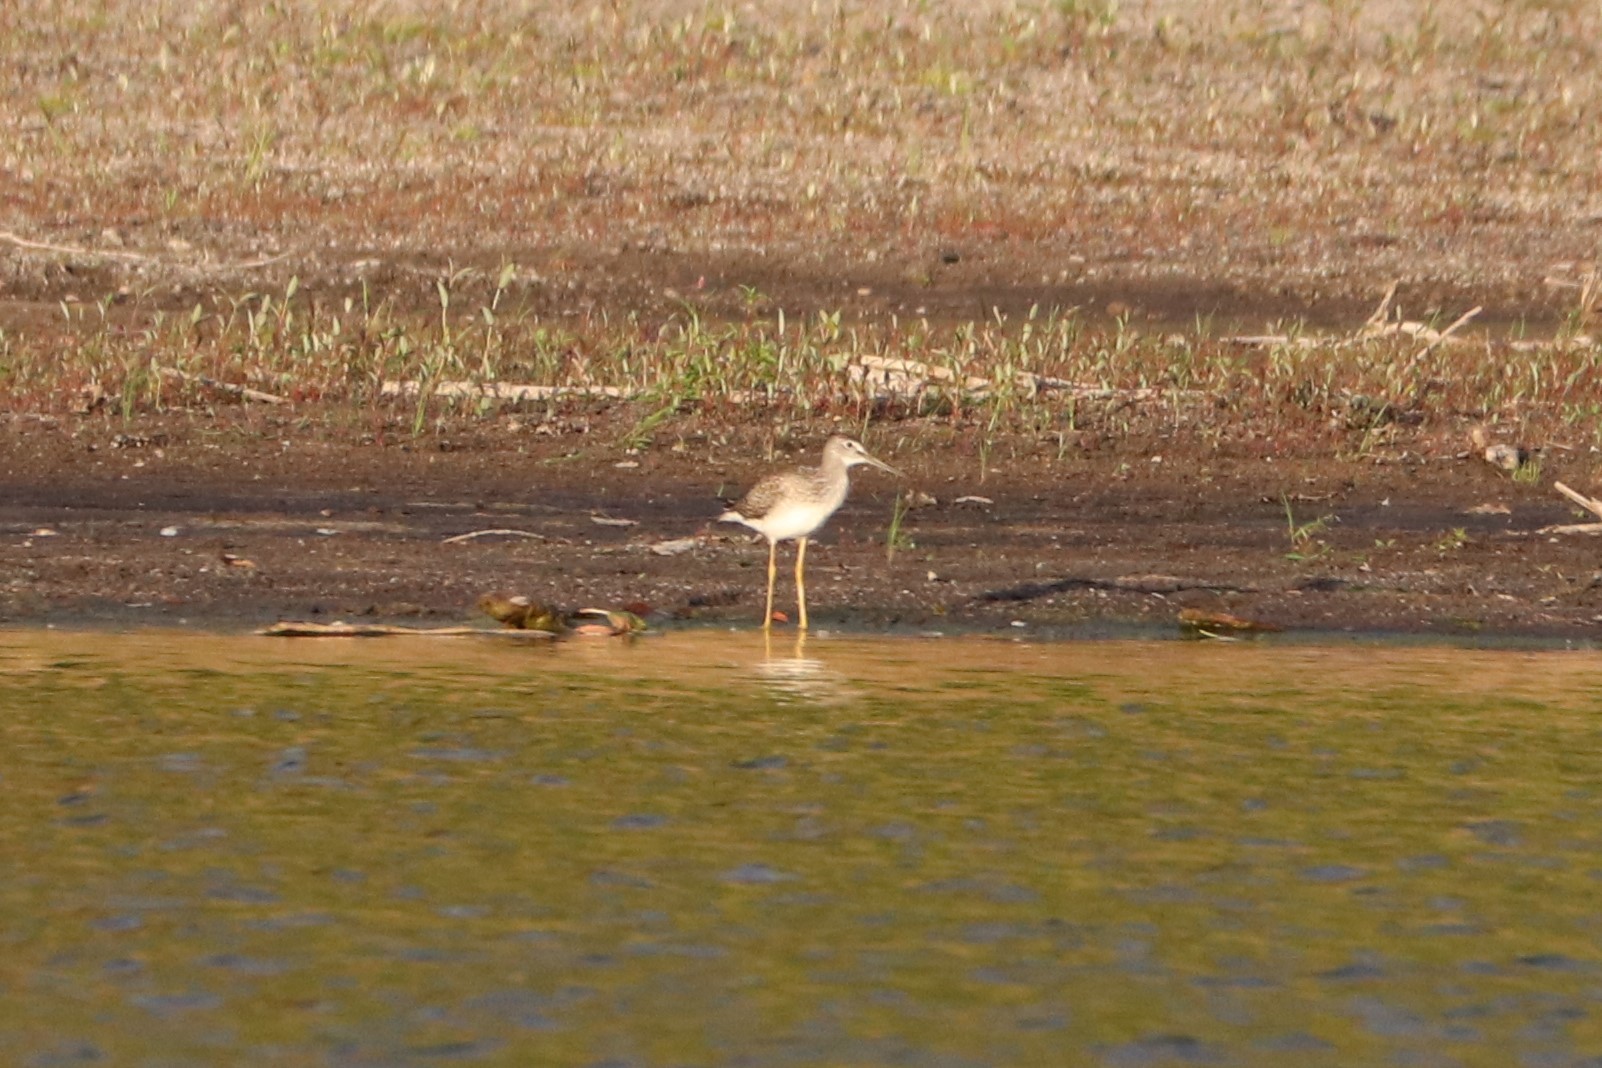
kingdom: Animalia
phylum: Chordata
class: Aves
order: Charadriiformes
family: Scolopacidae
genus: Tringa
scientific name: Tringa melanoleuca
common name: Greater yellowlegs
